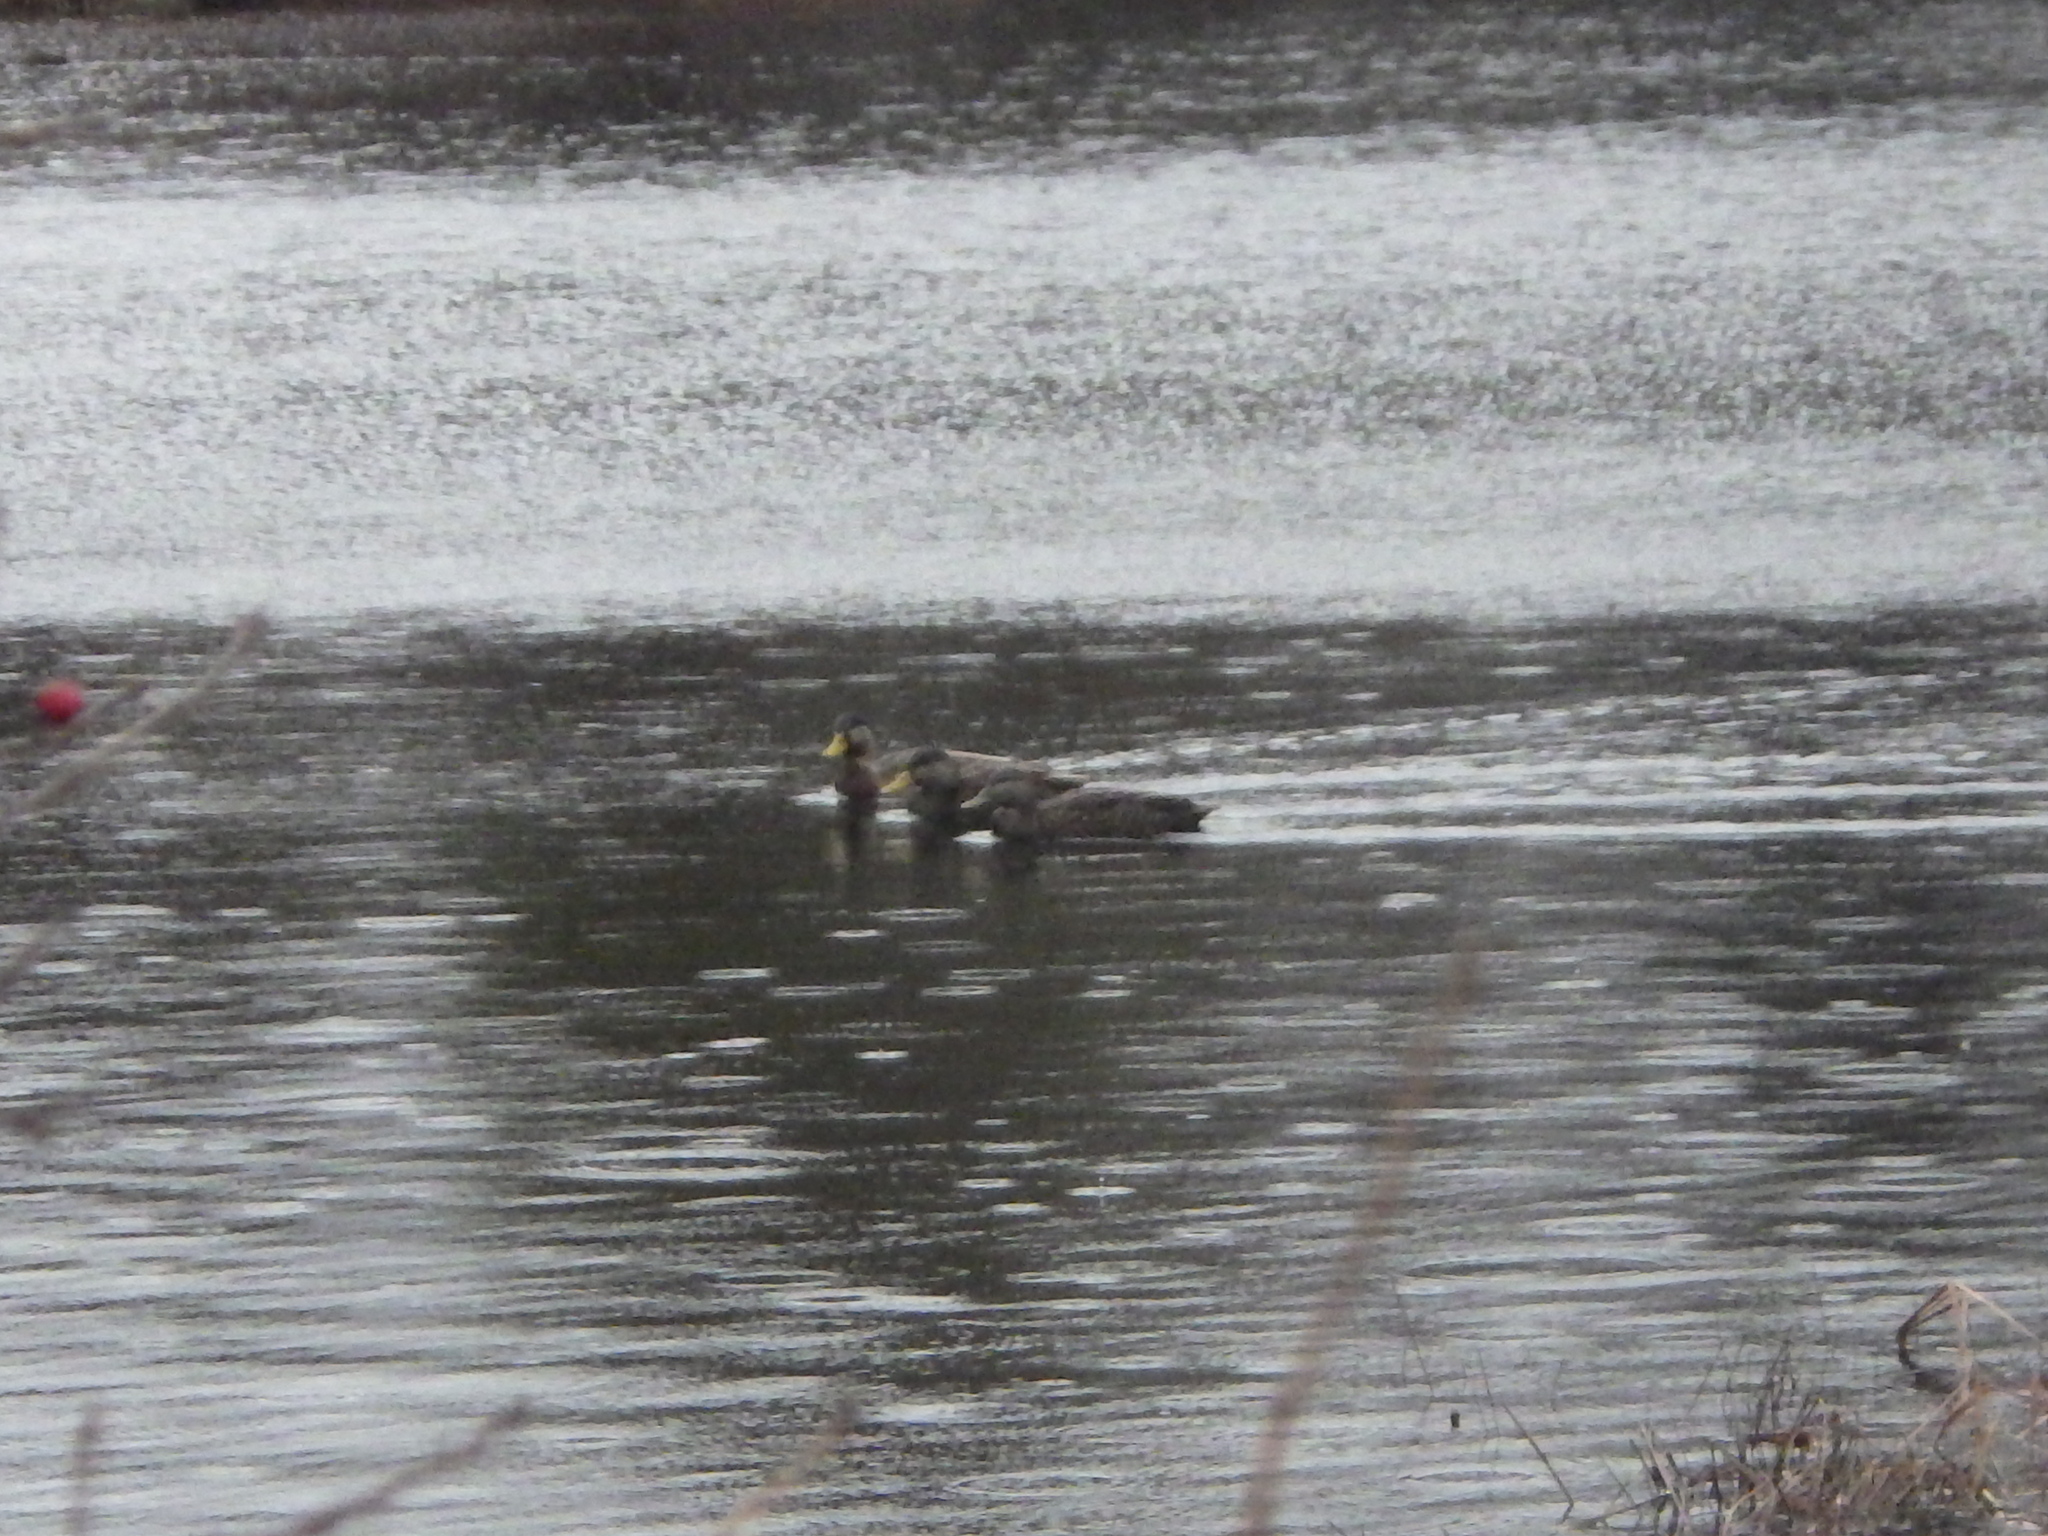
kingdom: Animalia
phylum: Chordata
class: Aves
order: Anseriformes
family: Anatidae
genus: Anas
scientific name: Anas rubripes
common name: American black duck
